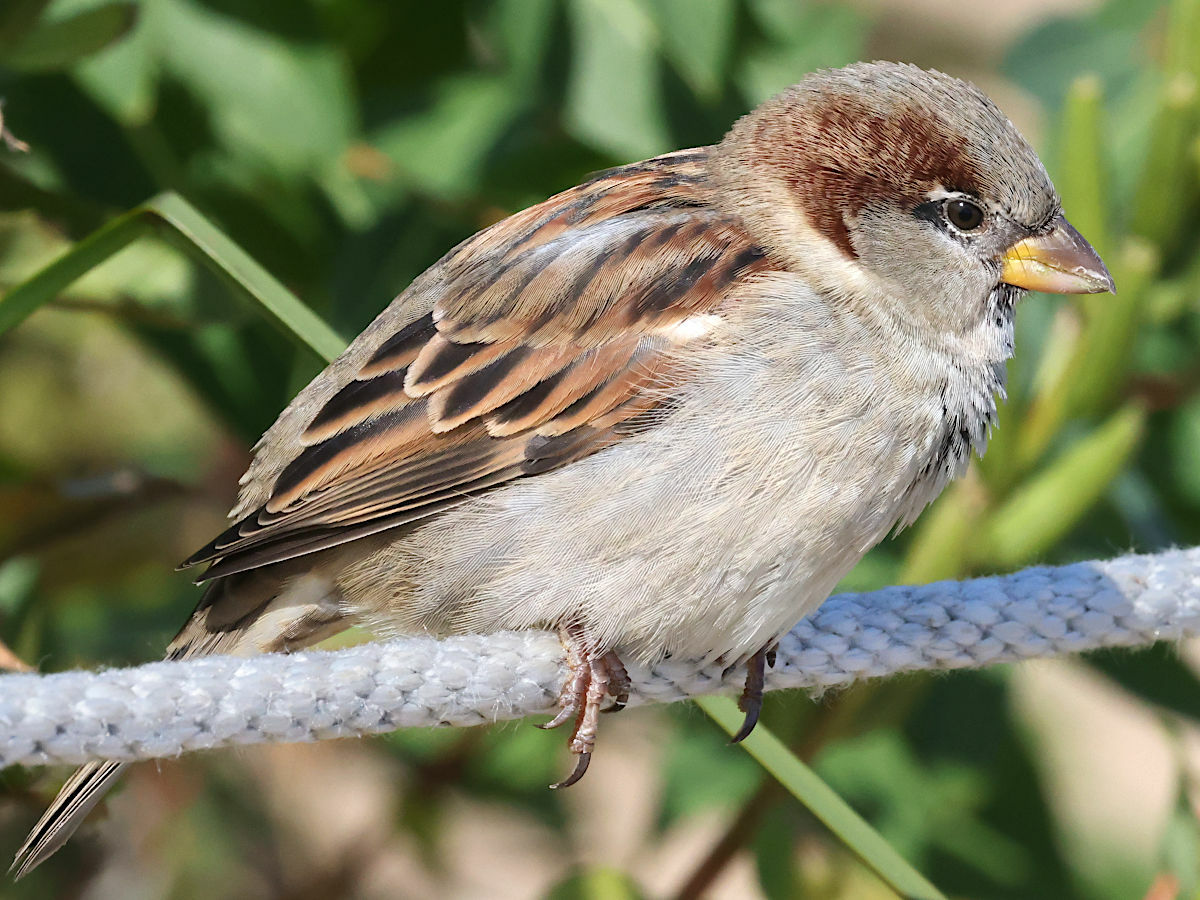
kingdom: Animalia
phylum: Chordata
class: Aves
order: Passeriformes
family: Passeridae
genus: Passer
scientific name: Passer domesticus
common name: House sparrow
